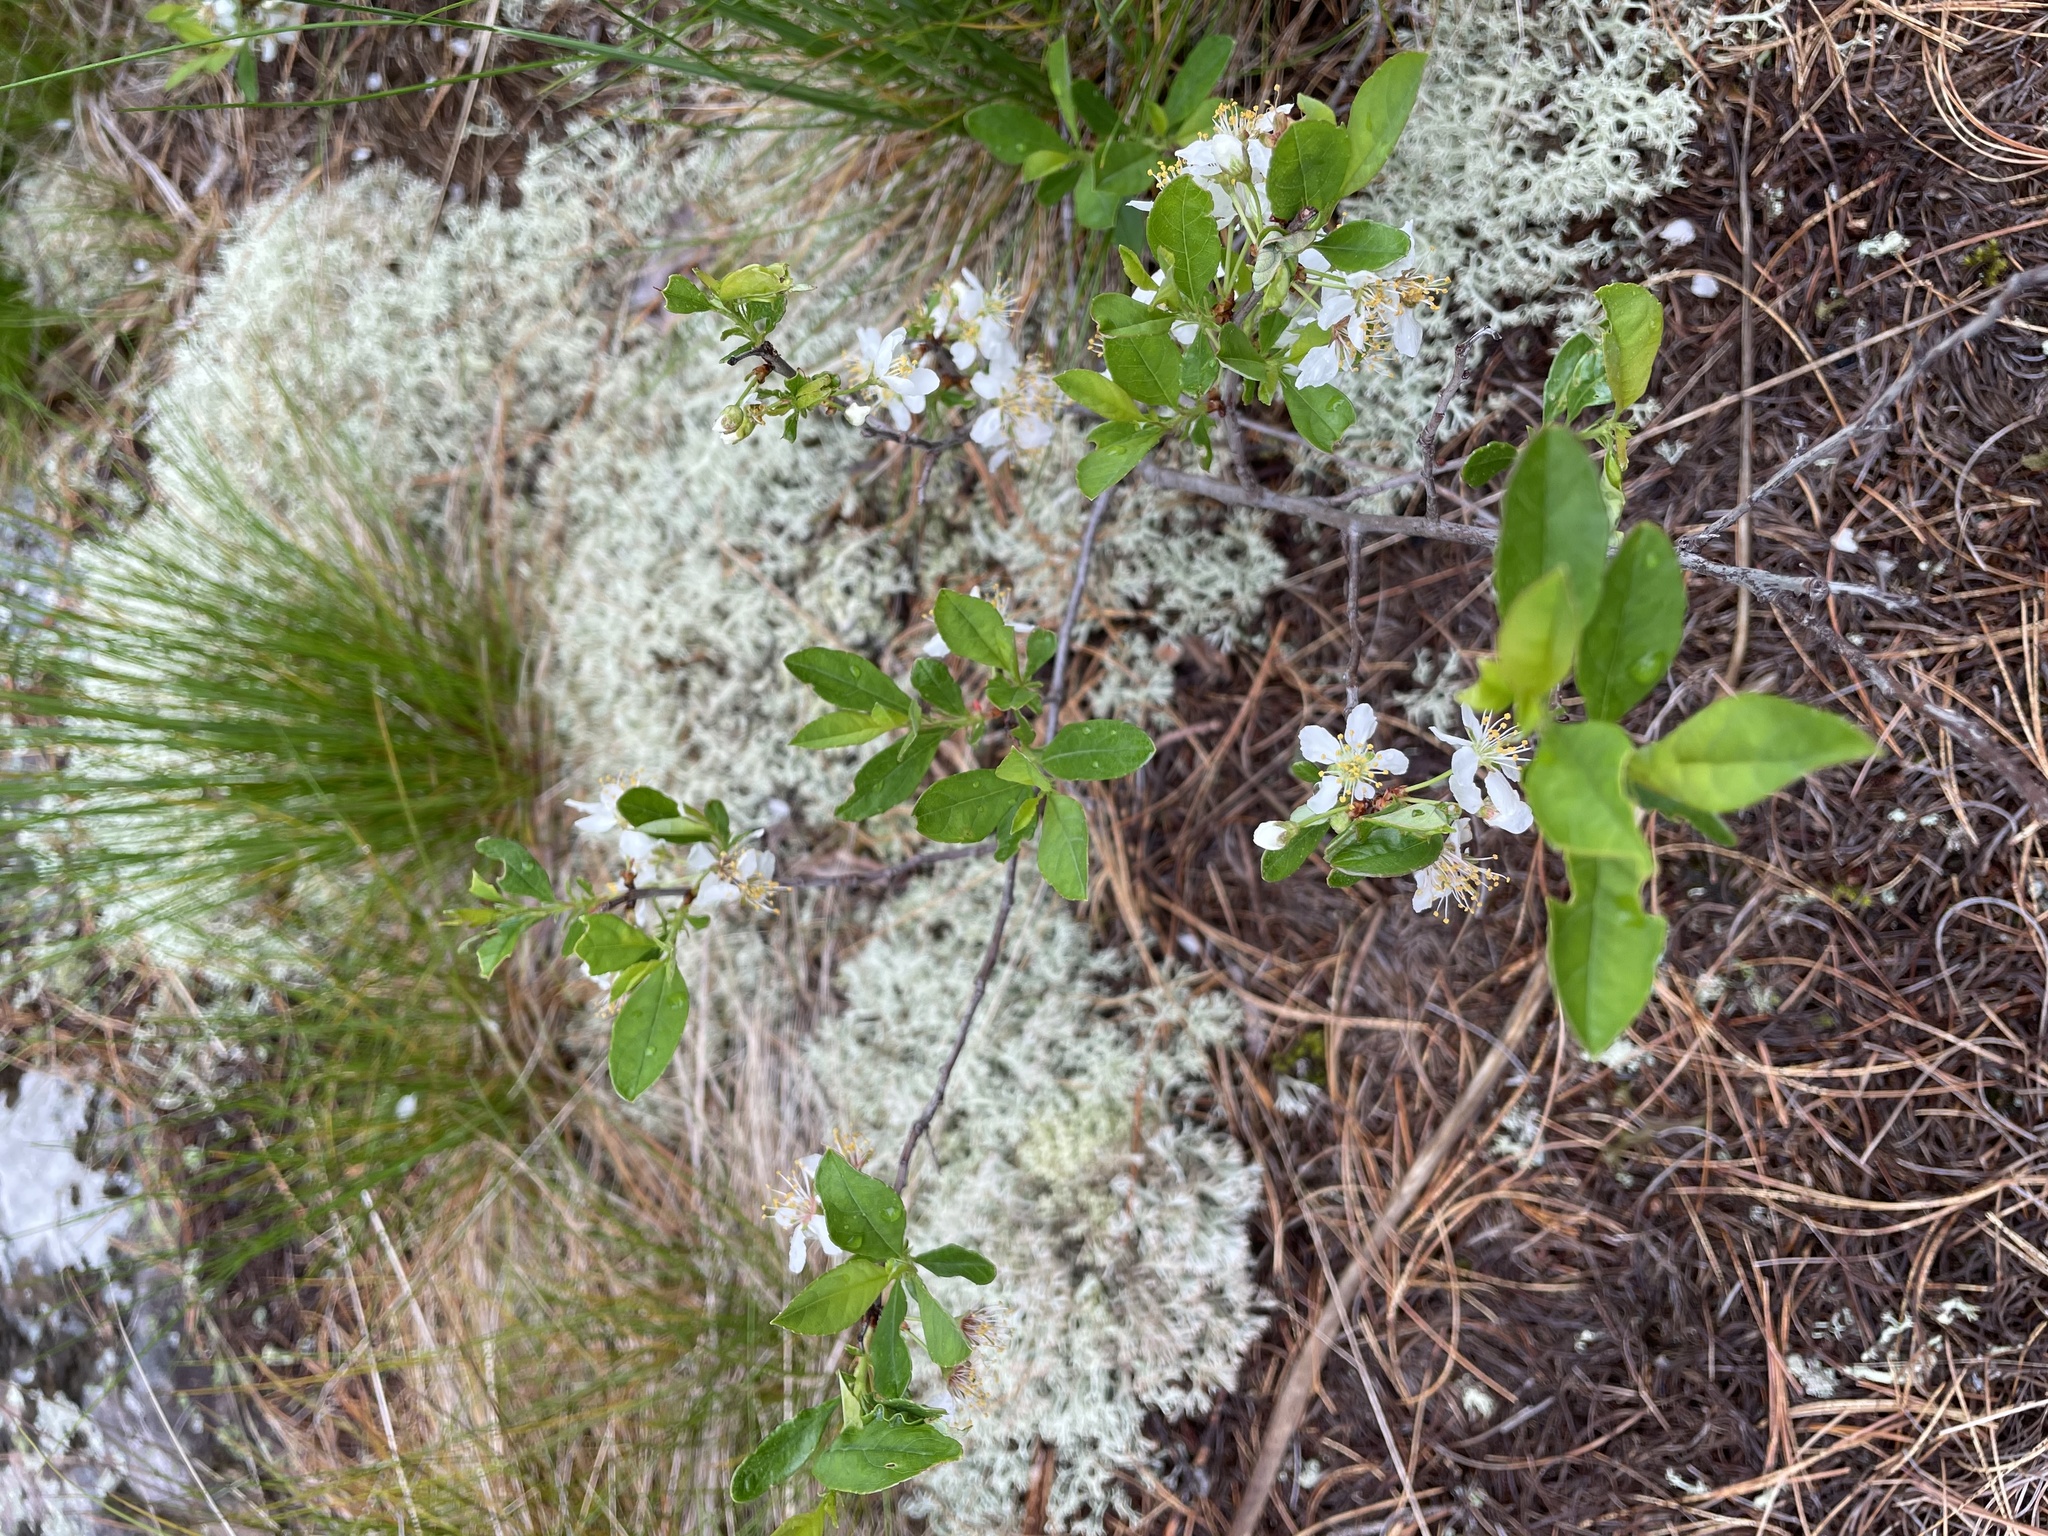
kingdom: Plantae
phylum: Tracheophyta
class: Magnoliopsida
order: Rosales
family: Rosaceae
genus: Prunus
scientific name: Prunus pumila
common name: Dwarf cherry
